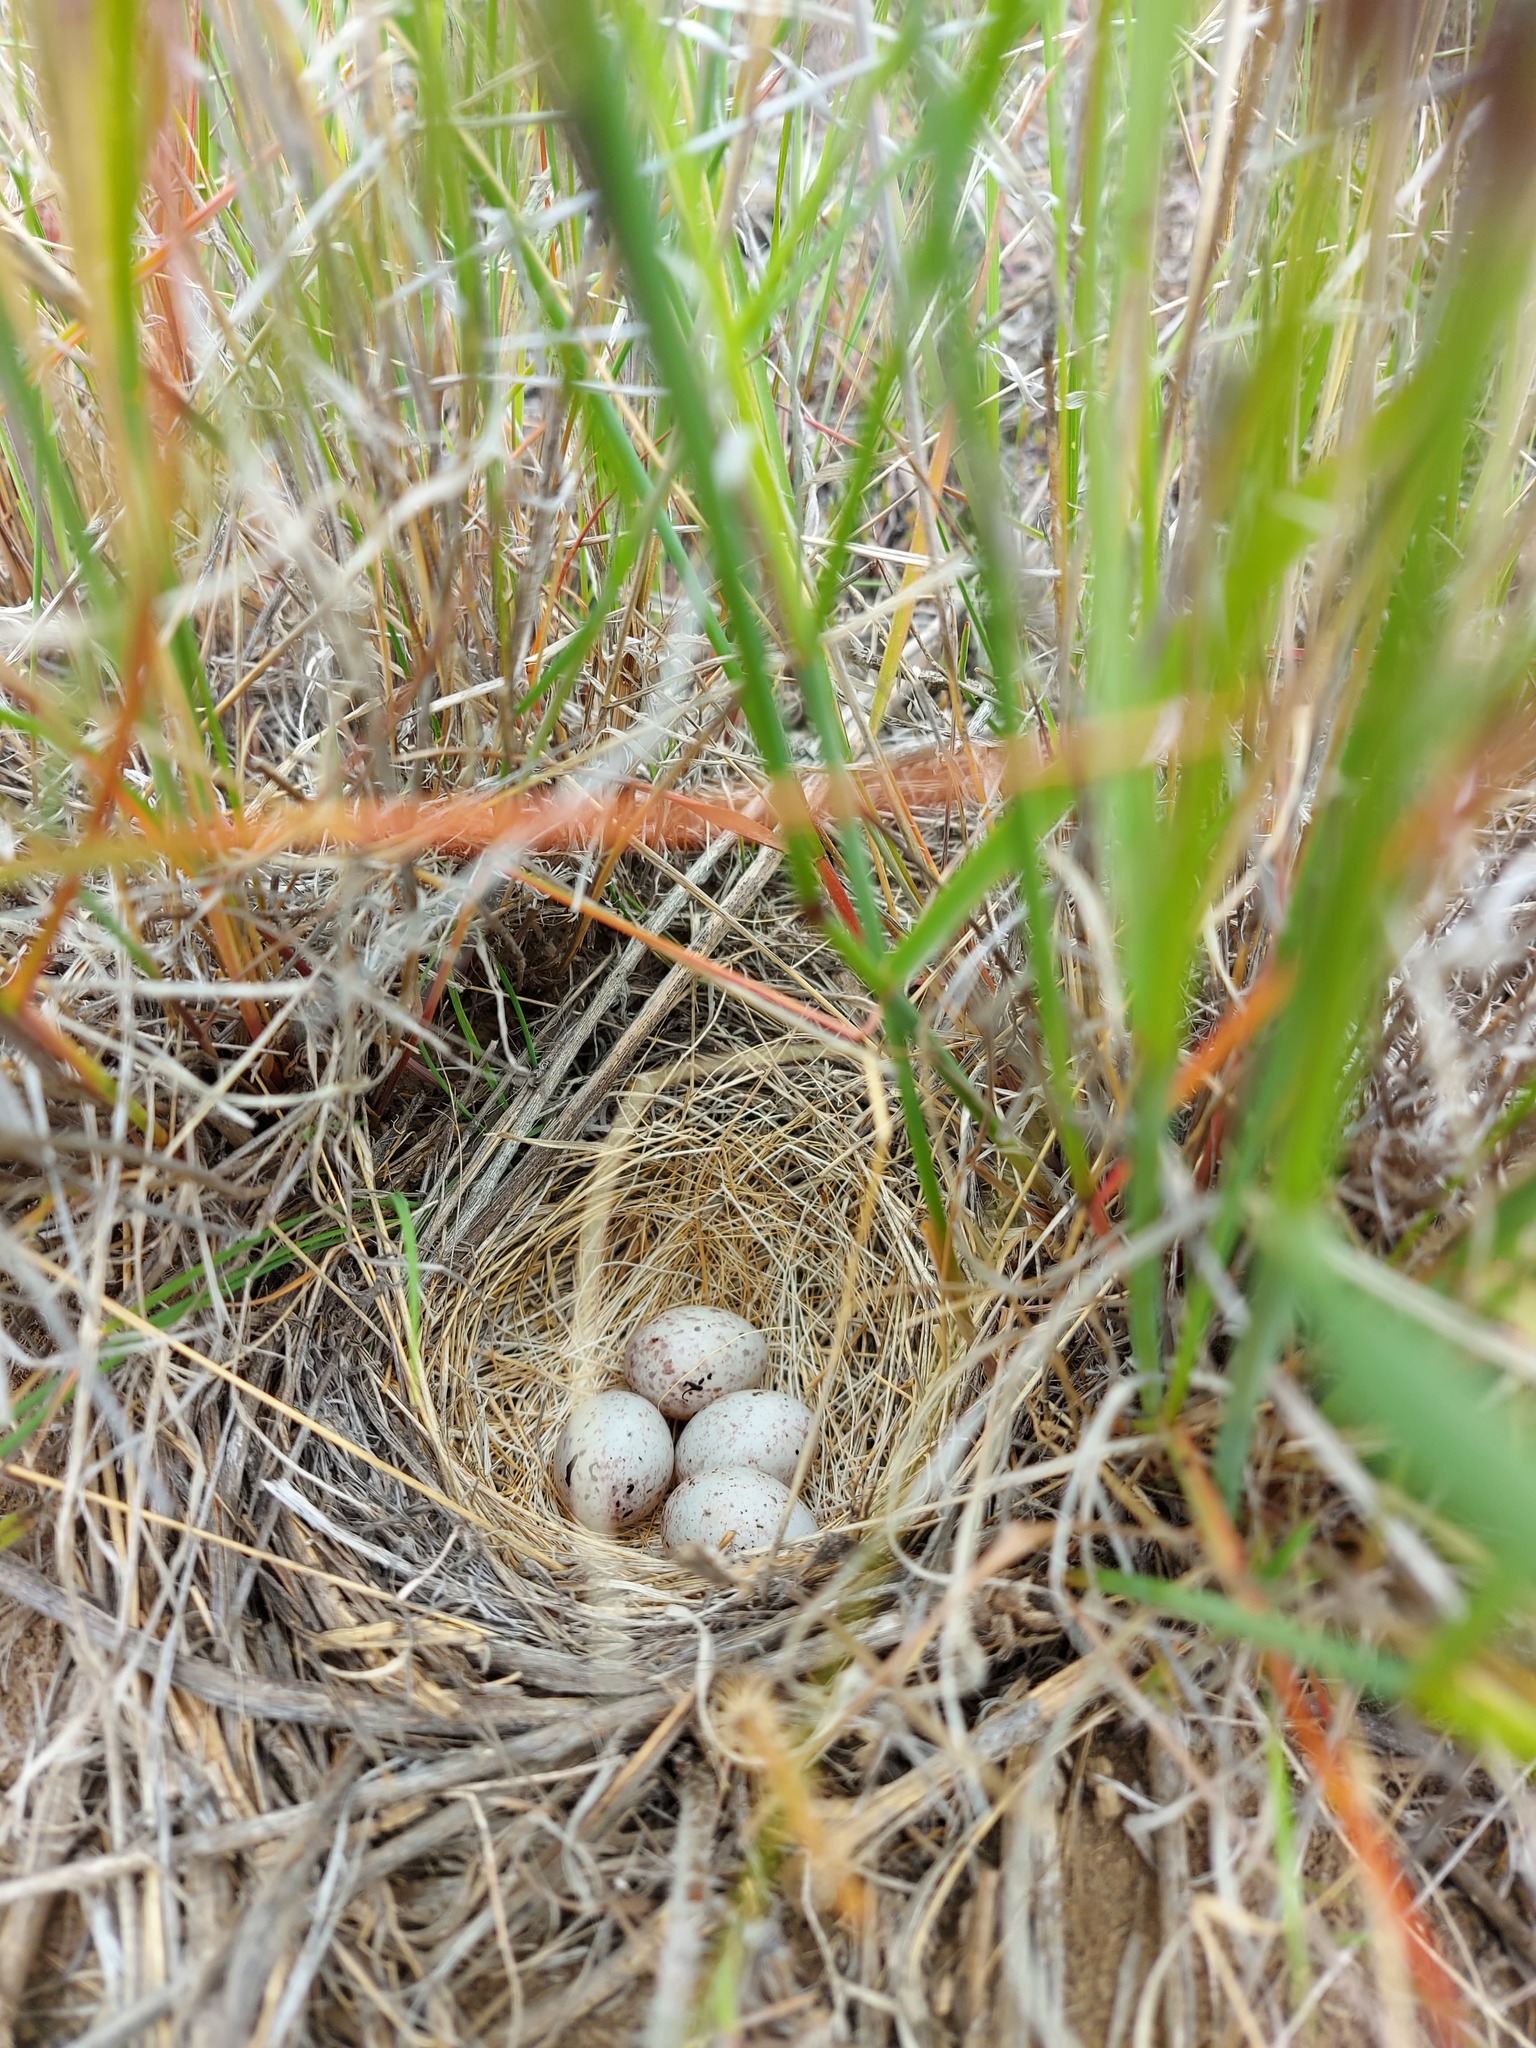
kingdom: Animalia
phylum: Chordata
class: Aves
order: Passeriformes
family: Passerellidae
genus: Pooecetes
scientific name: Pooecetes gramineus
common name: Vesper sparrow
